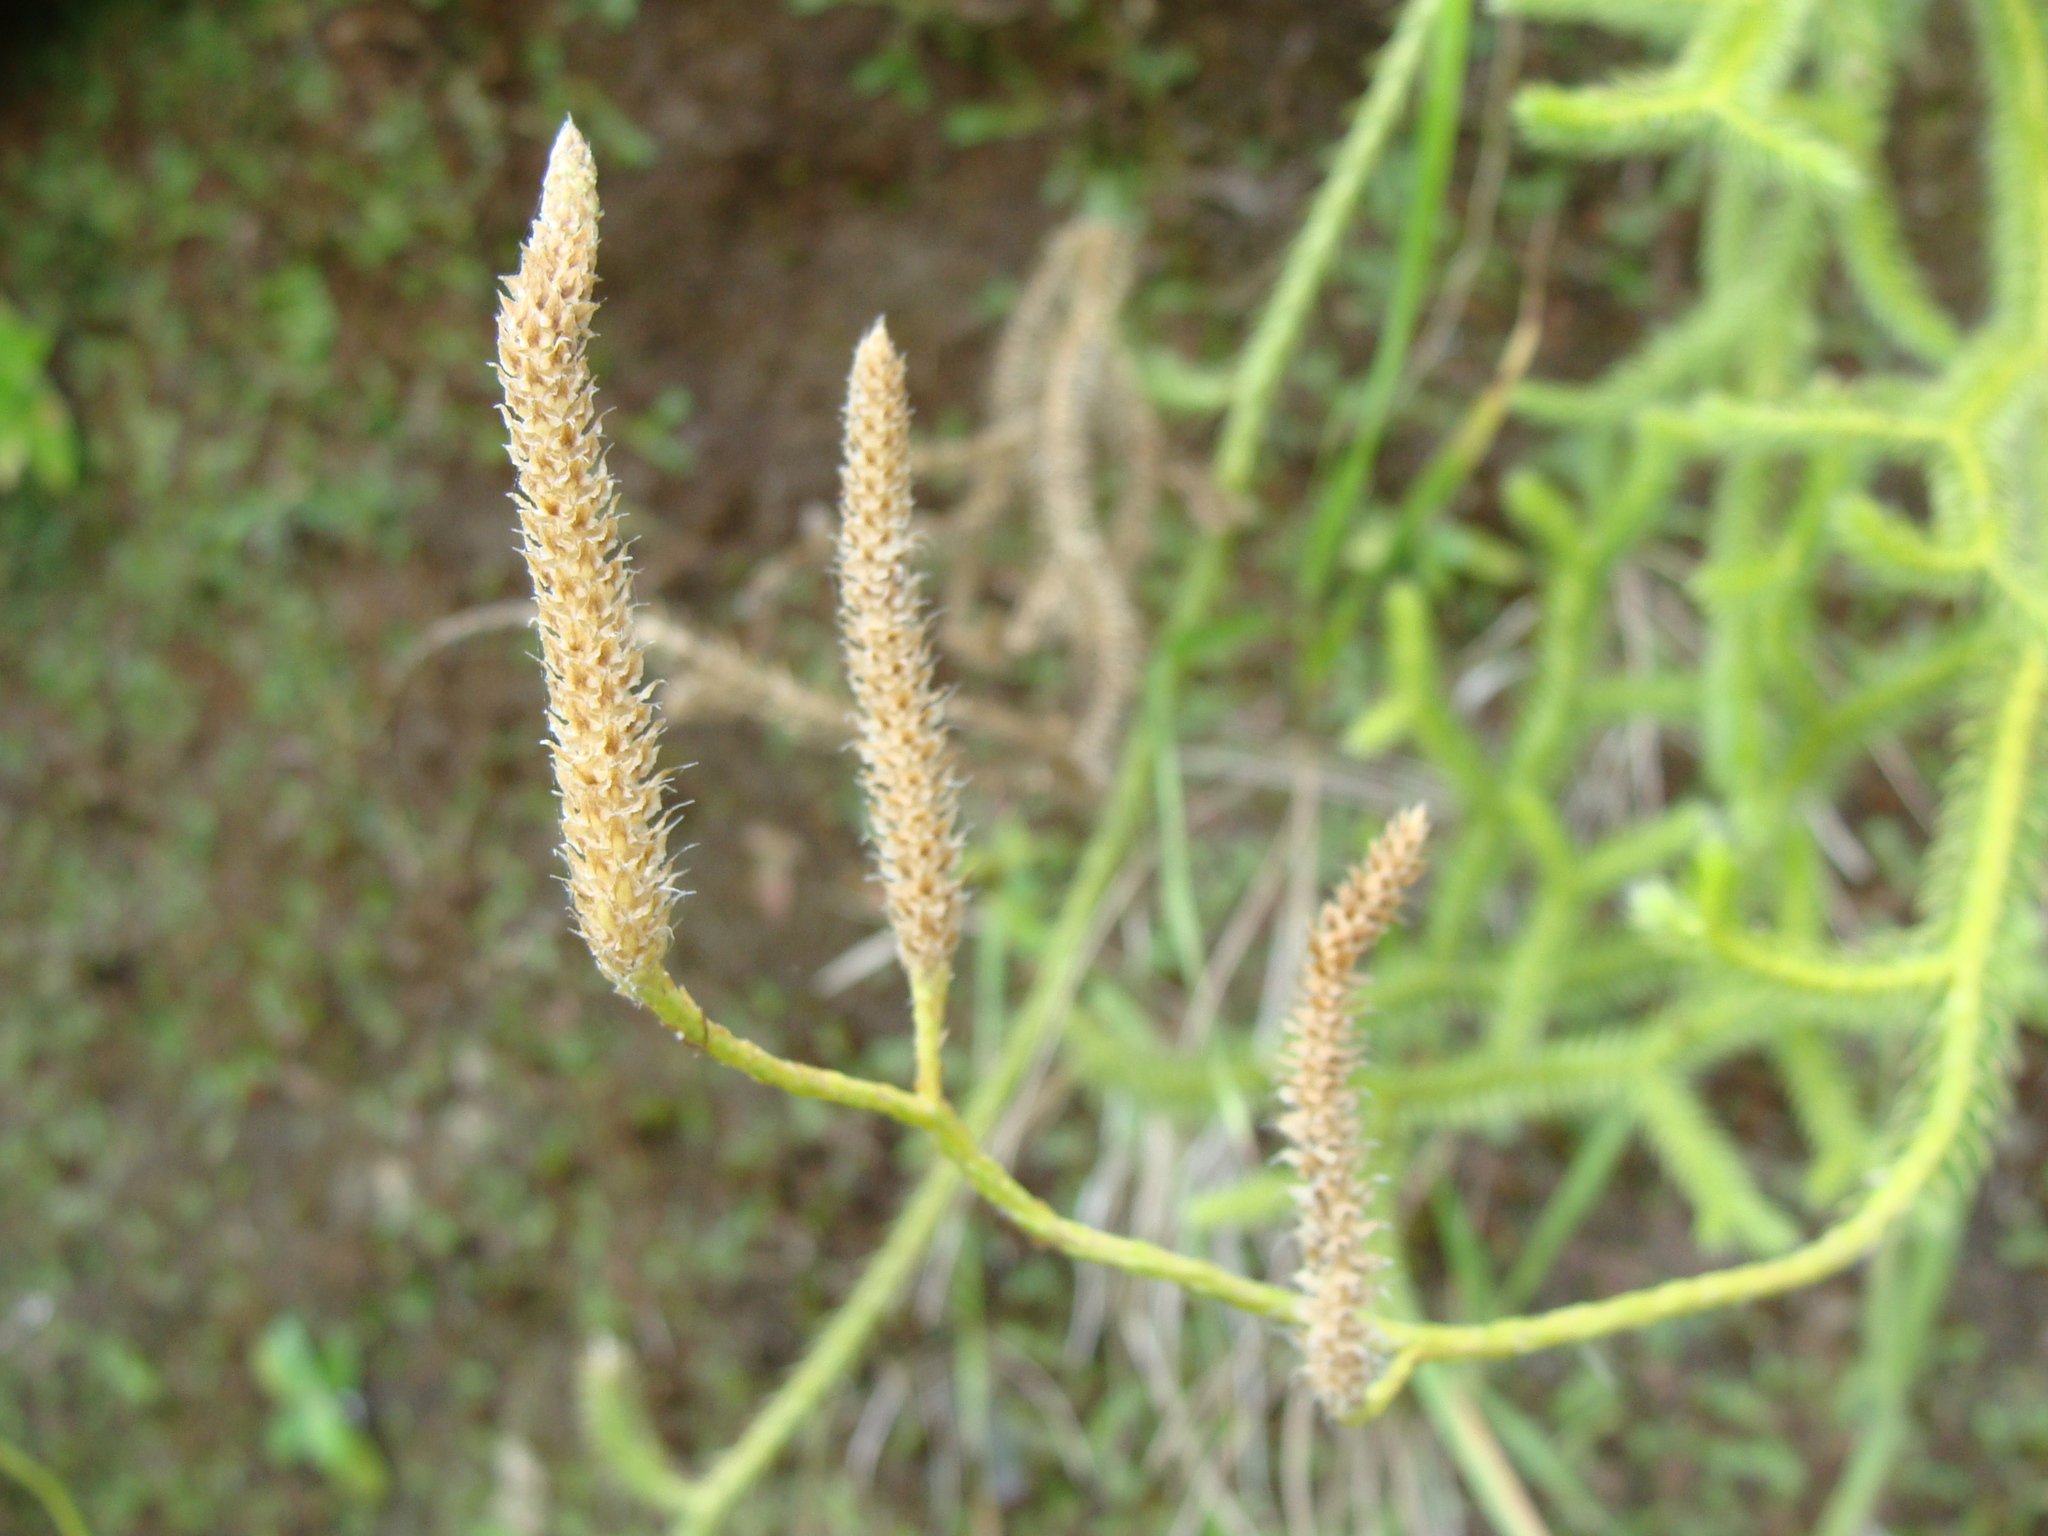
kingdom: Plantae
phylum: Tracheophyta
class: Lycopodiopsida
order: Lycopodiales
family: Lycopodiaceae
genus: Lycopodium
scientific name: Lycopodium clavatum
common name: Stag's-horn clubmoss
